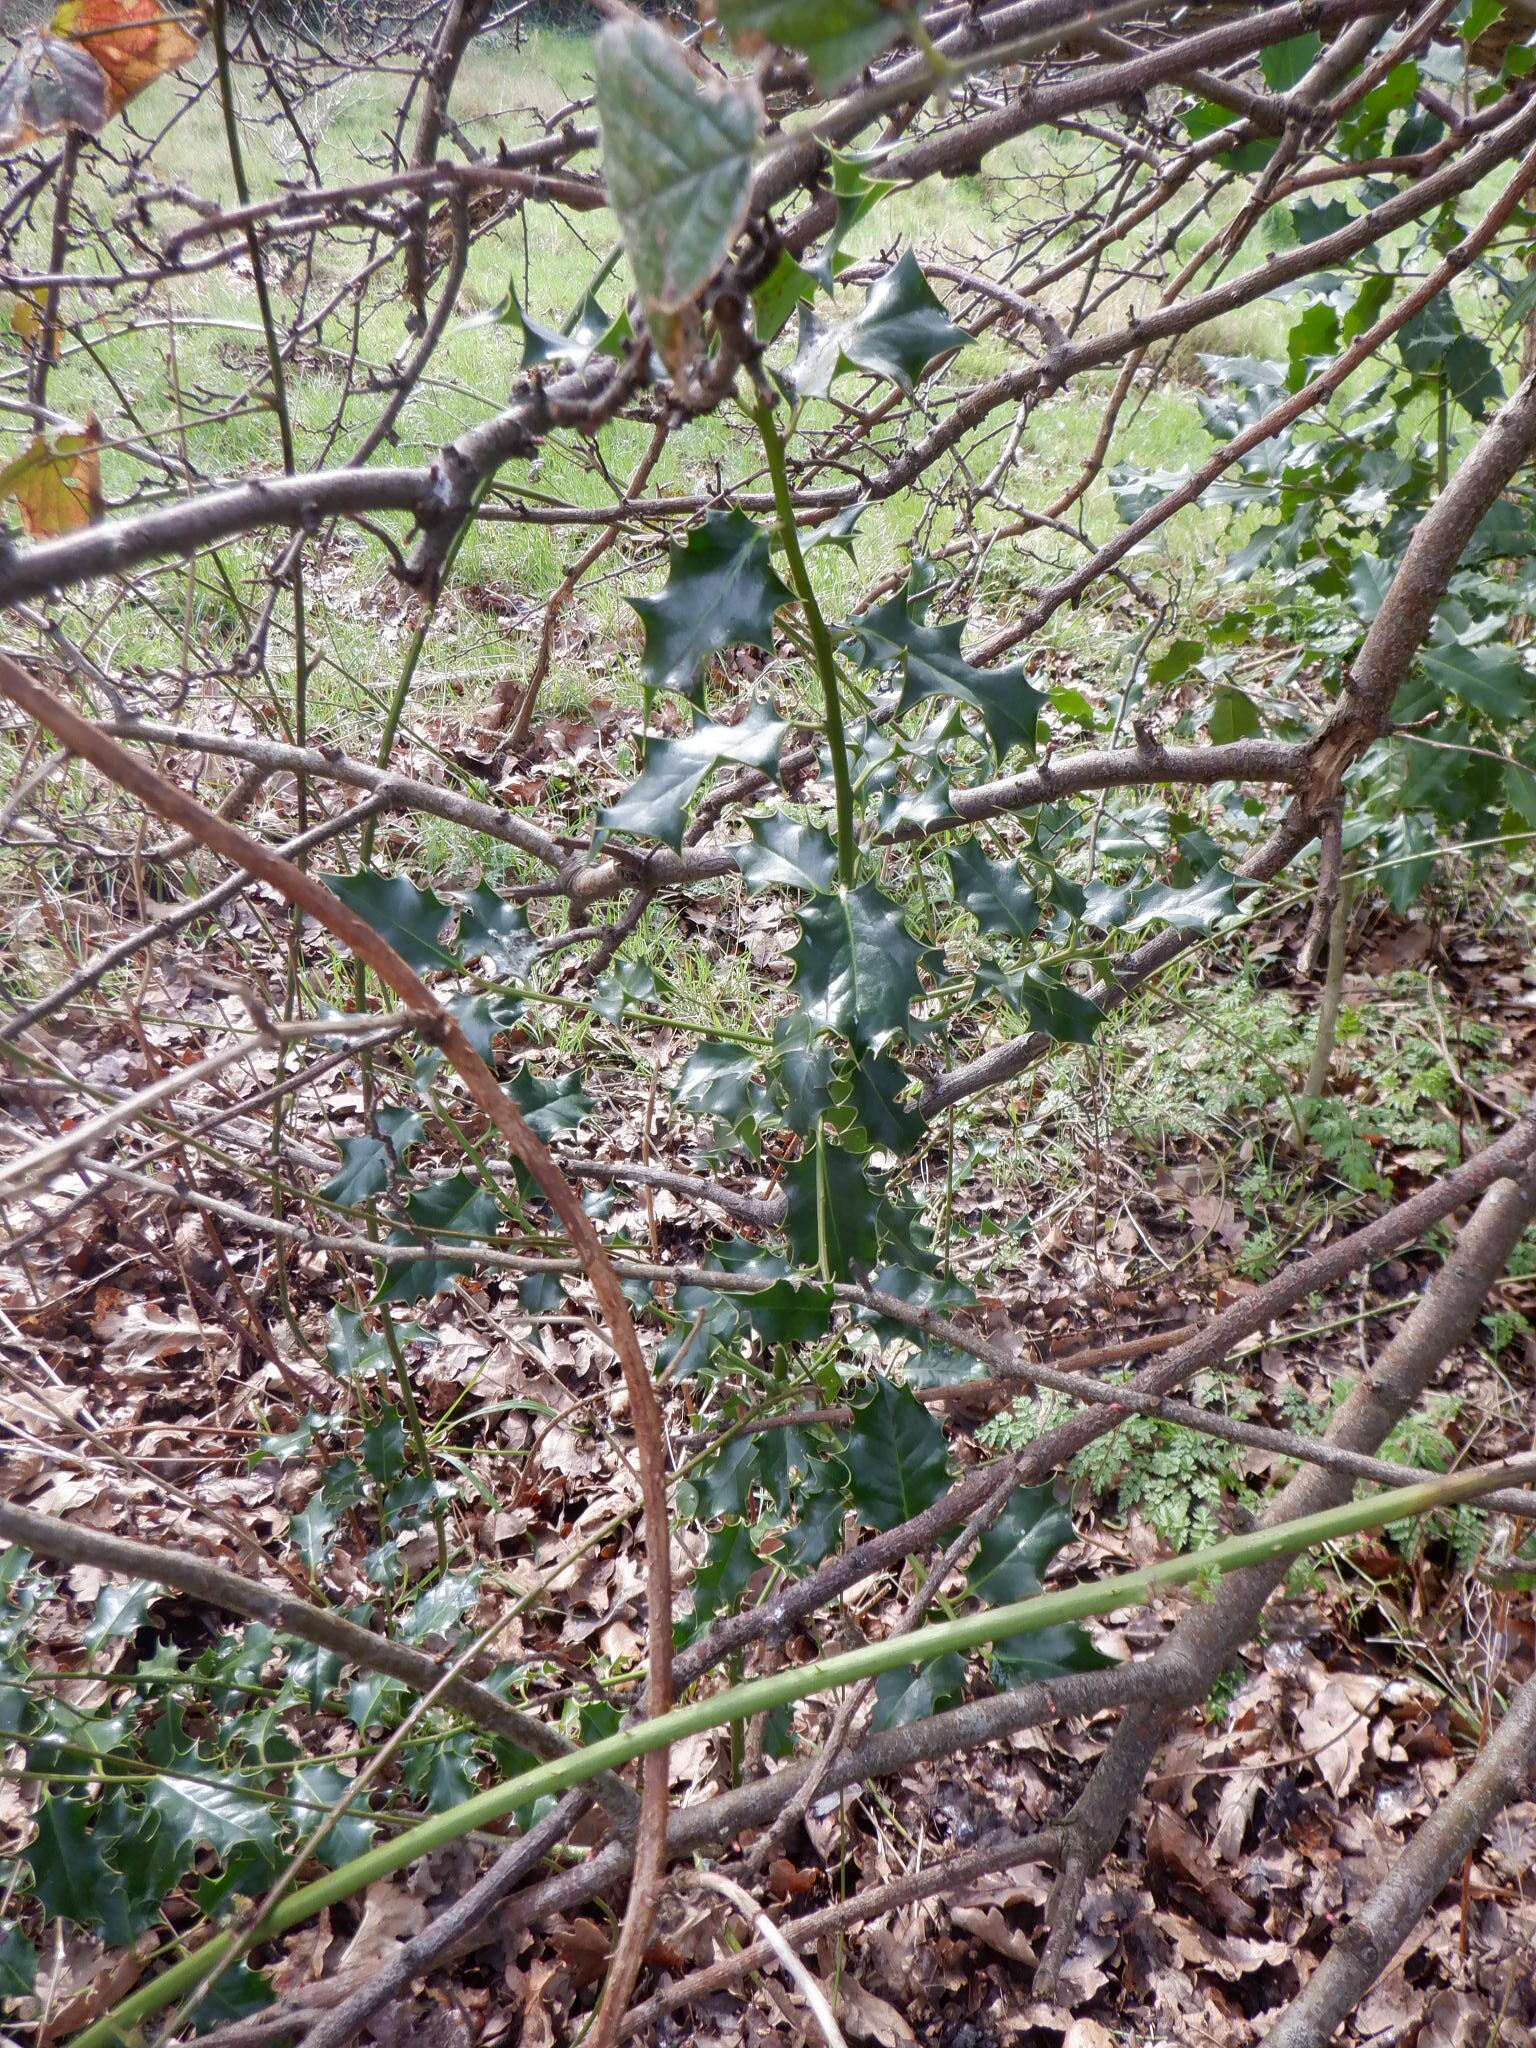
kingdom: Plantae
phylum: Tracheophyta
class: Magnoliopsida
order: Aquifoliales
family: Aquifoliaceae
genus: Ilex
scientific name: Ilex aquifolium
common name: English holly
